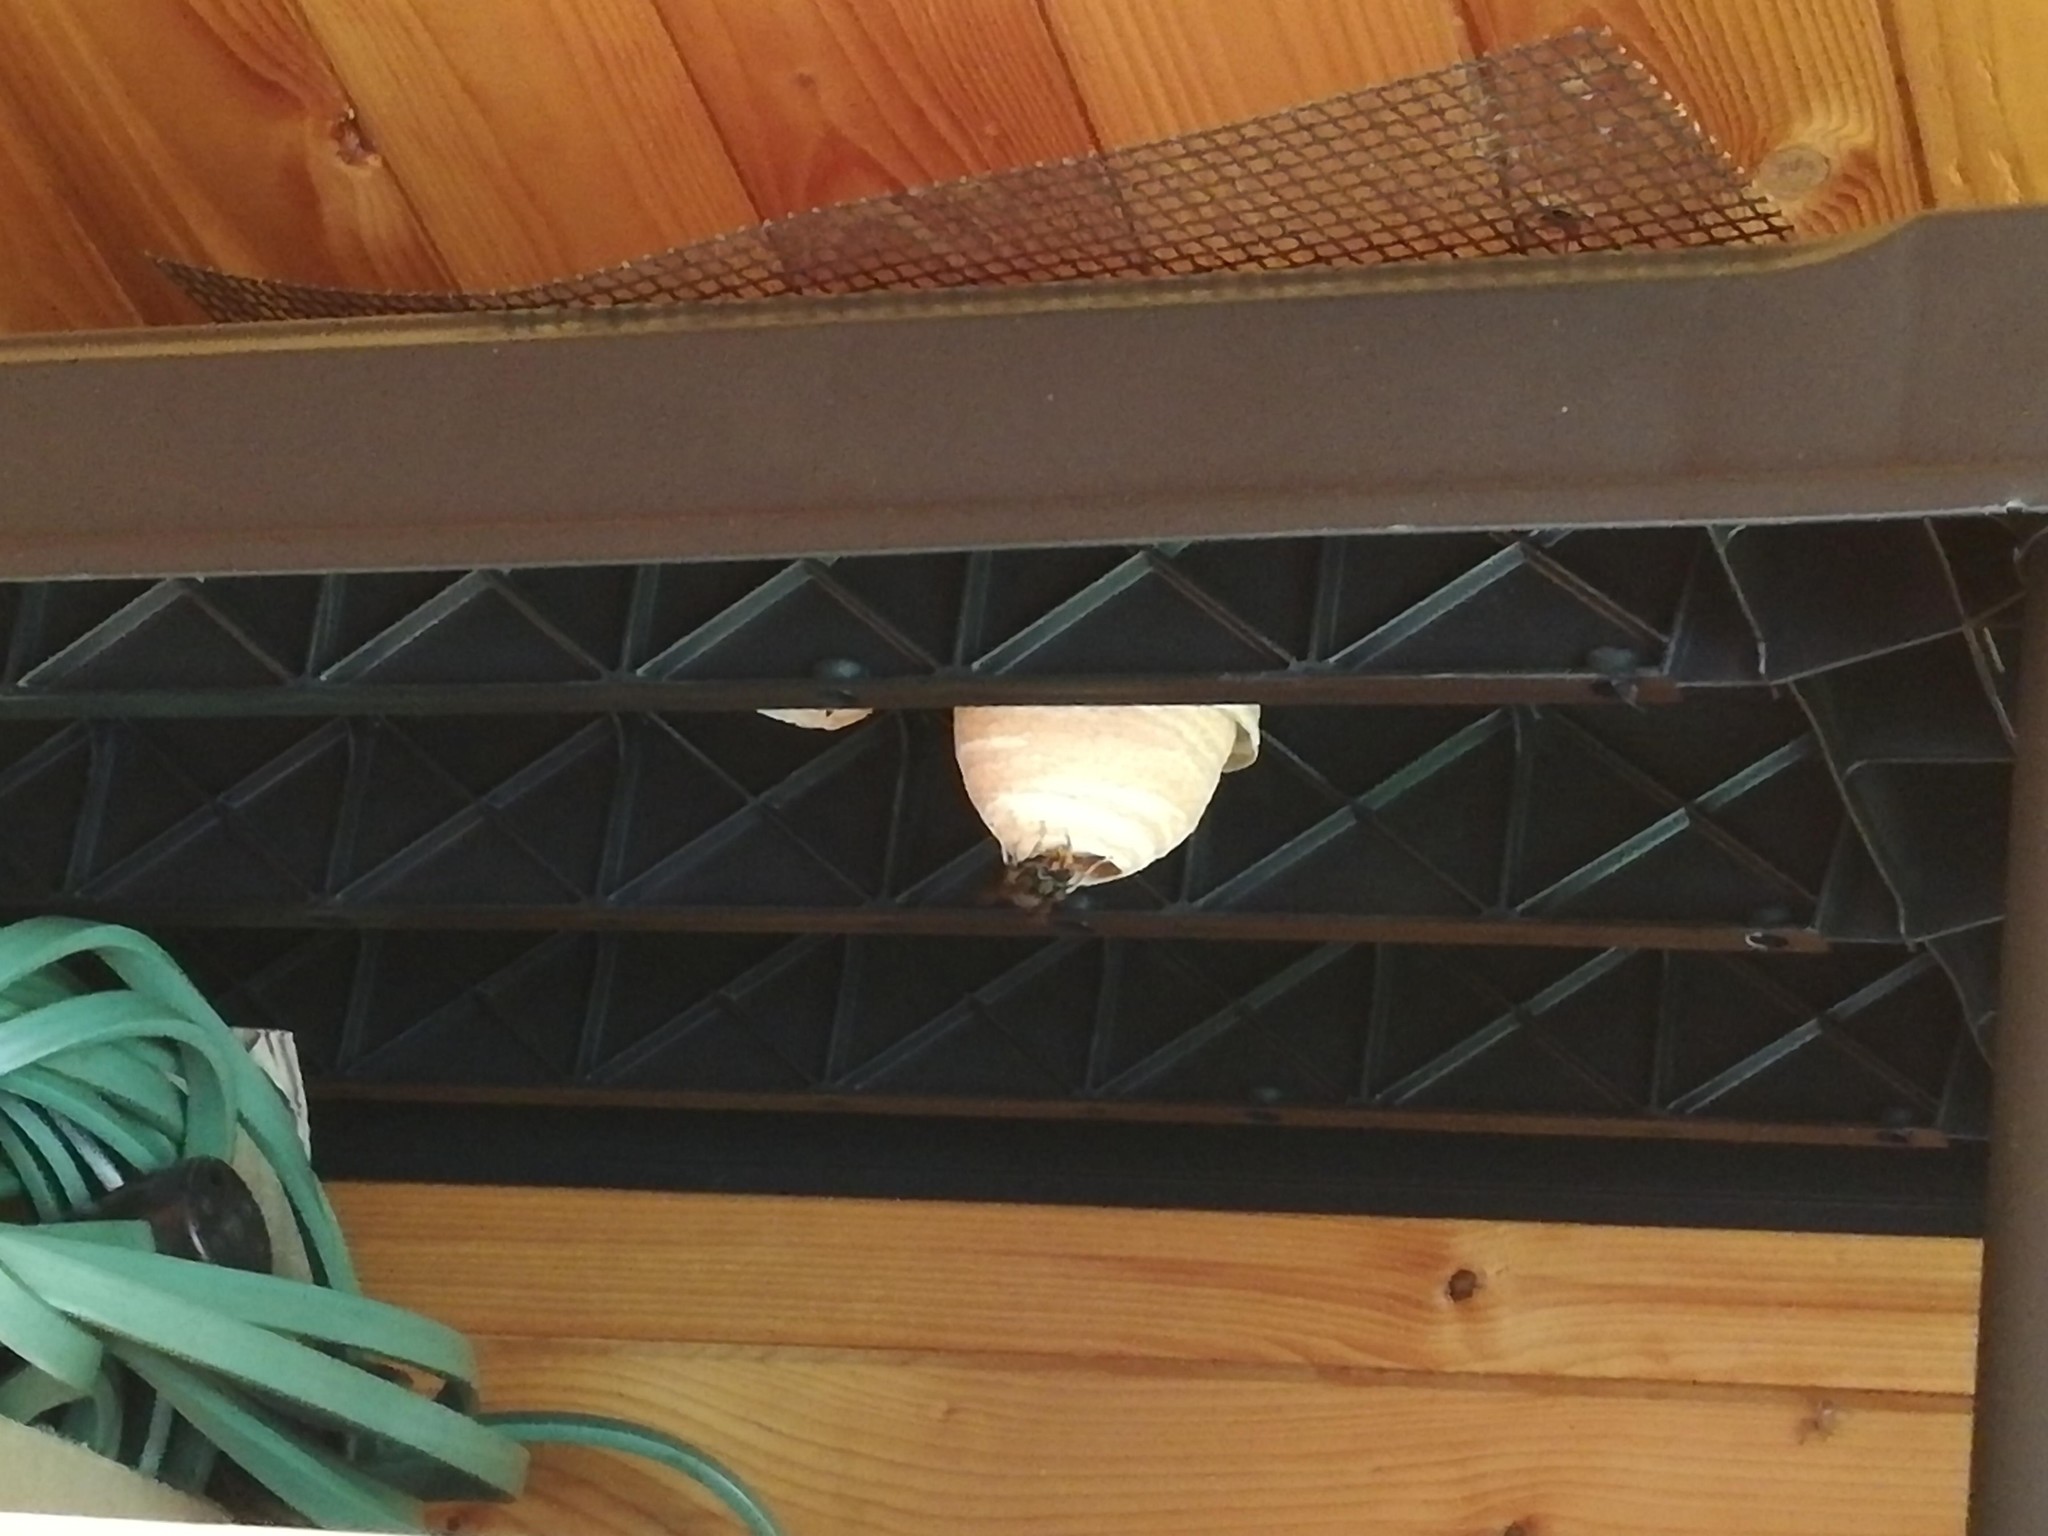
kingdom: Animalia
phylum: Arthropoda
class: Insecta
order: Hymenoptera
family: Vespidae
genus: Vespa
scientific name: Vespa velutina
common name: Asian hornet
